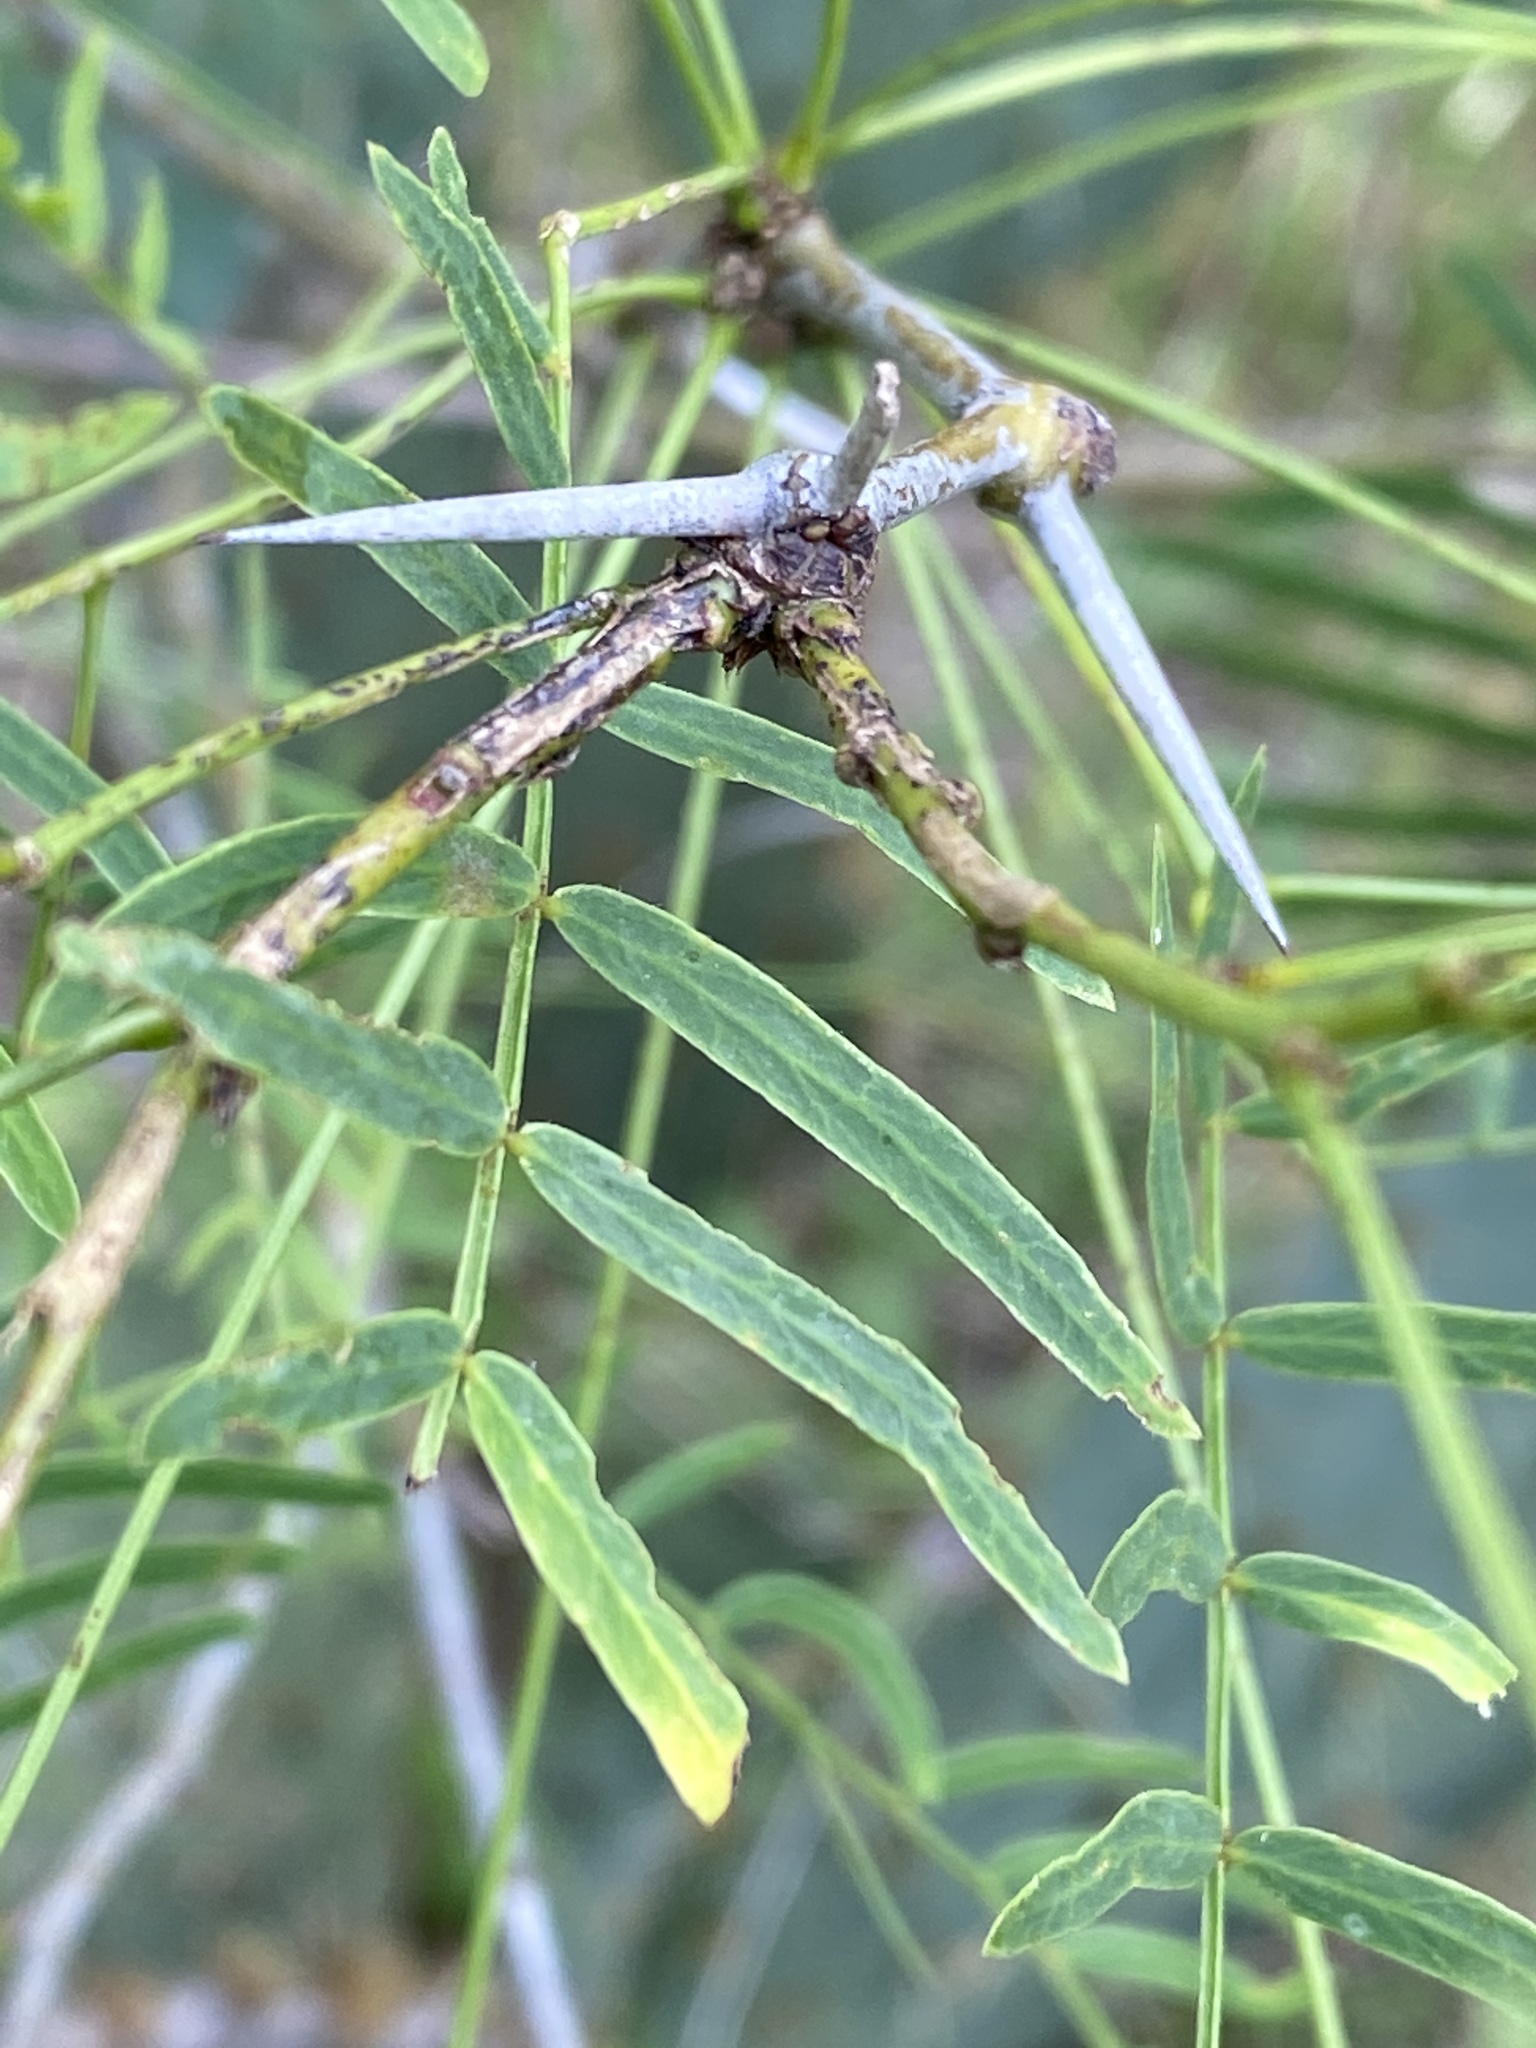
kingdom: Plantae
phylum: Tracheophyta
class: Magnoliopsida
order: Fabales
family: Fabaceae
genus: Prosopis
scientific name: Prosopis glandulosa
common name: Honey mesquite
